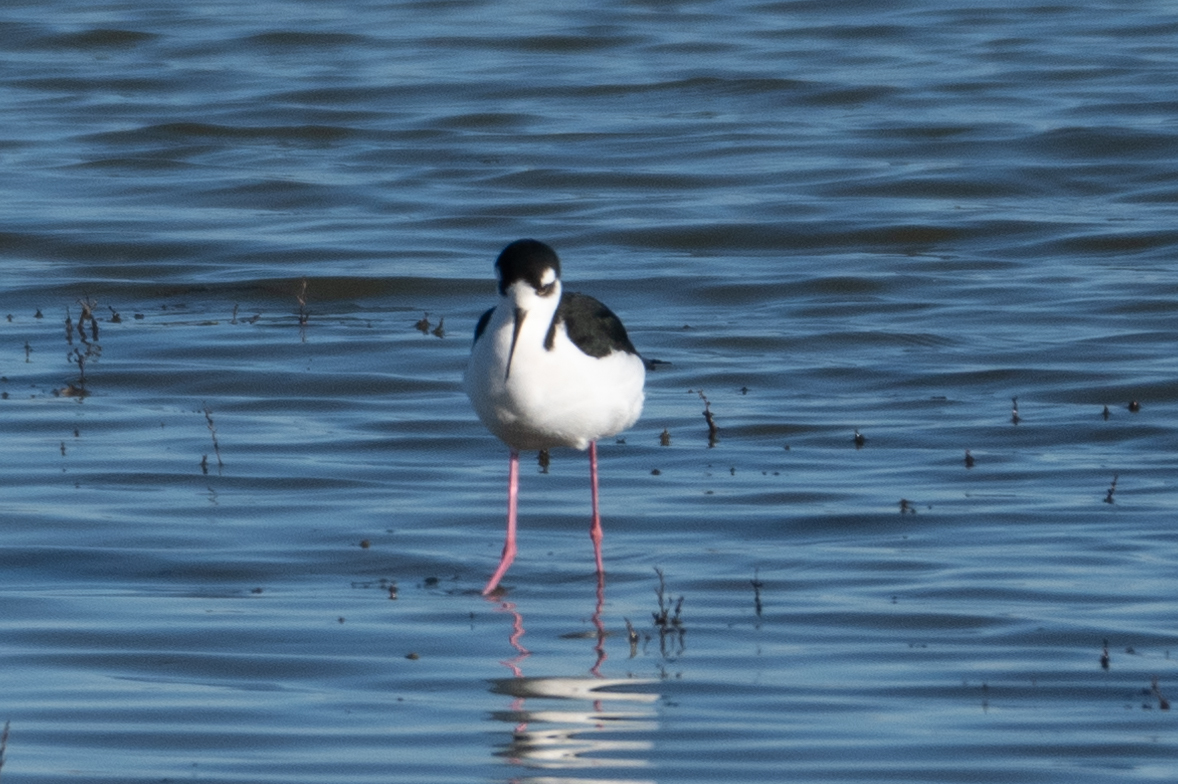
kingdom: Animalia
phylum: Chordata
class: Aves
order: Charadriiformes
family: Recurvirostridae
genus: Himantopus
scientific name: Himantopus mexicanus
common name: Black-necked stilt
